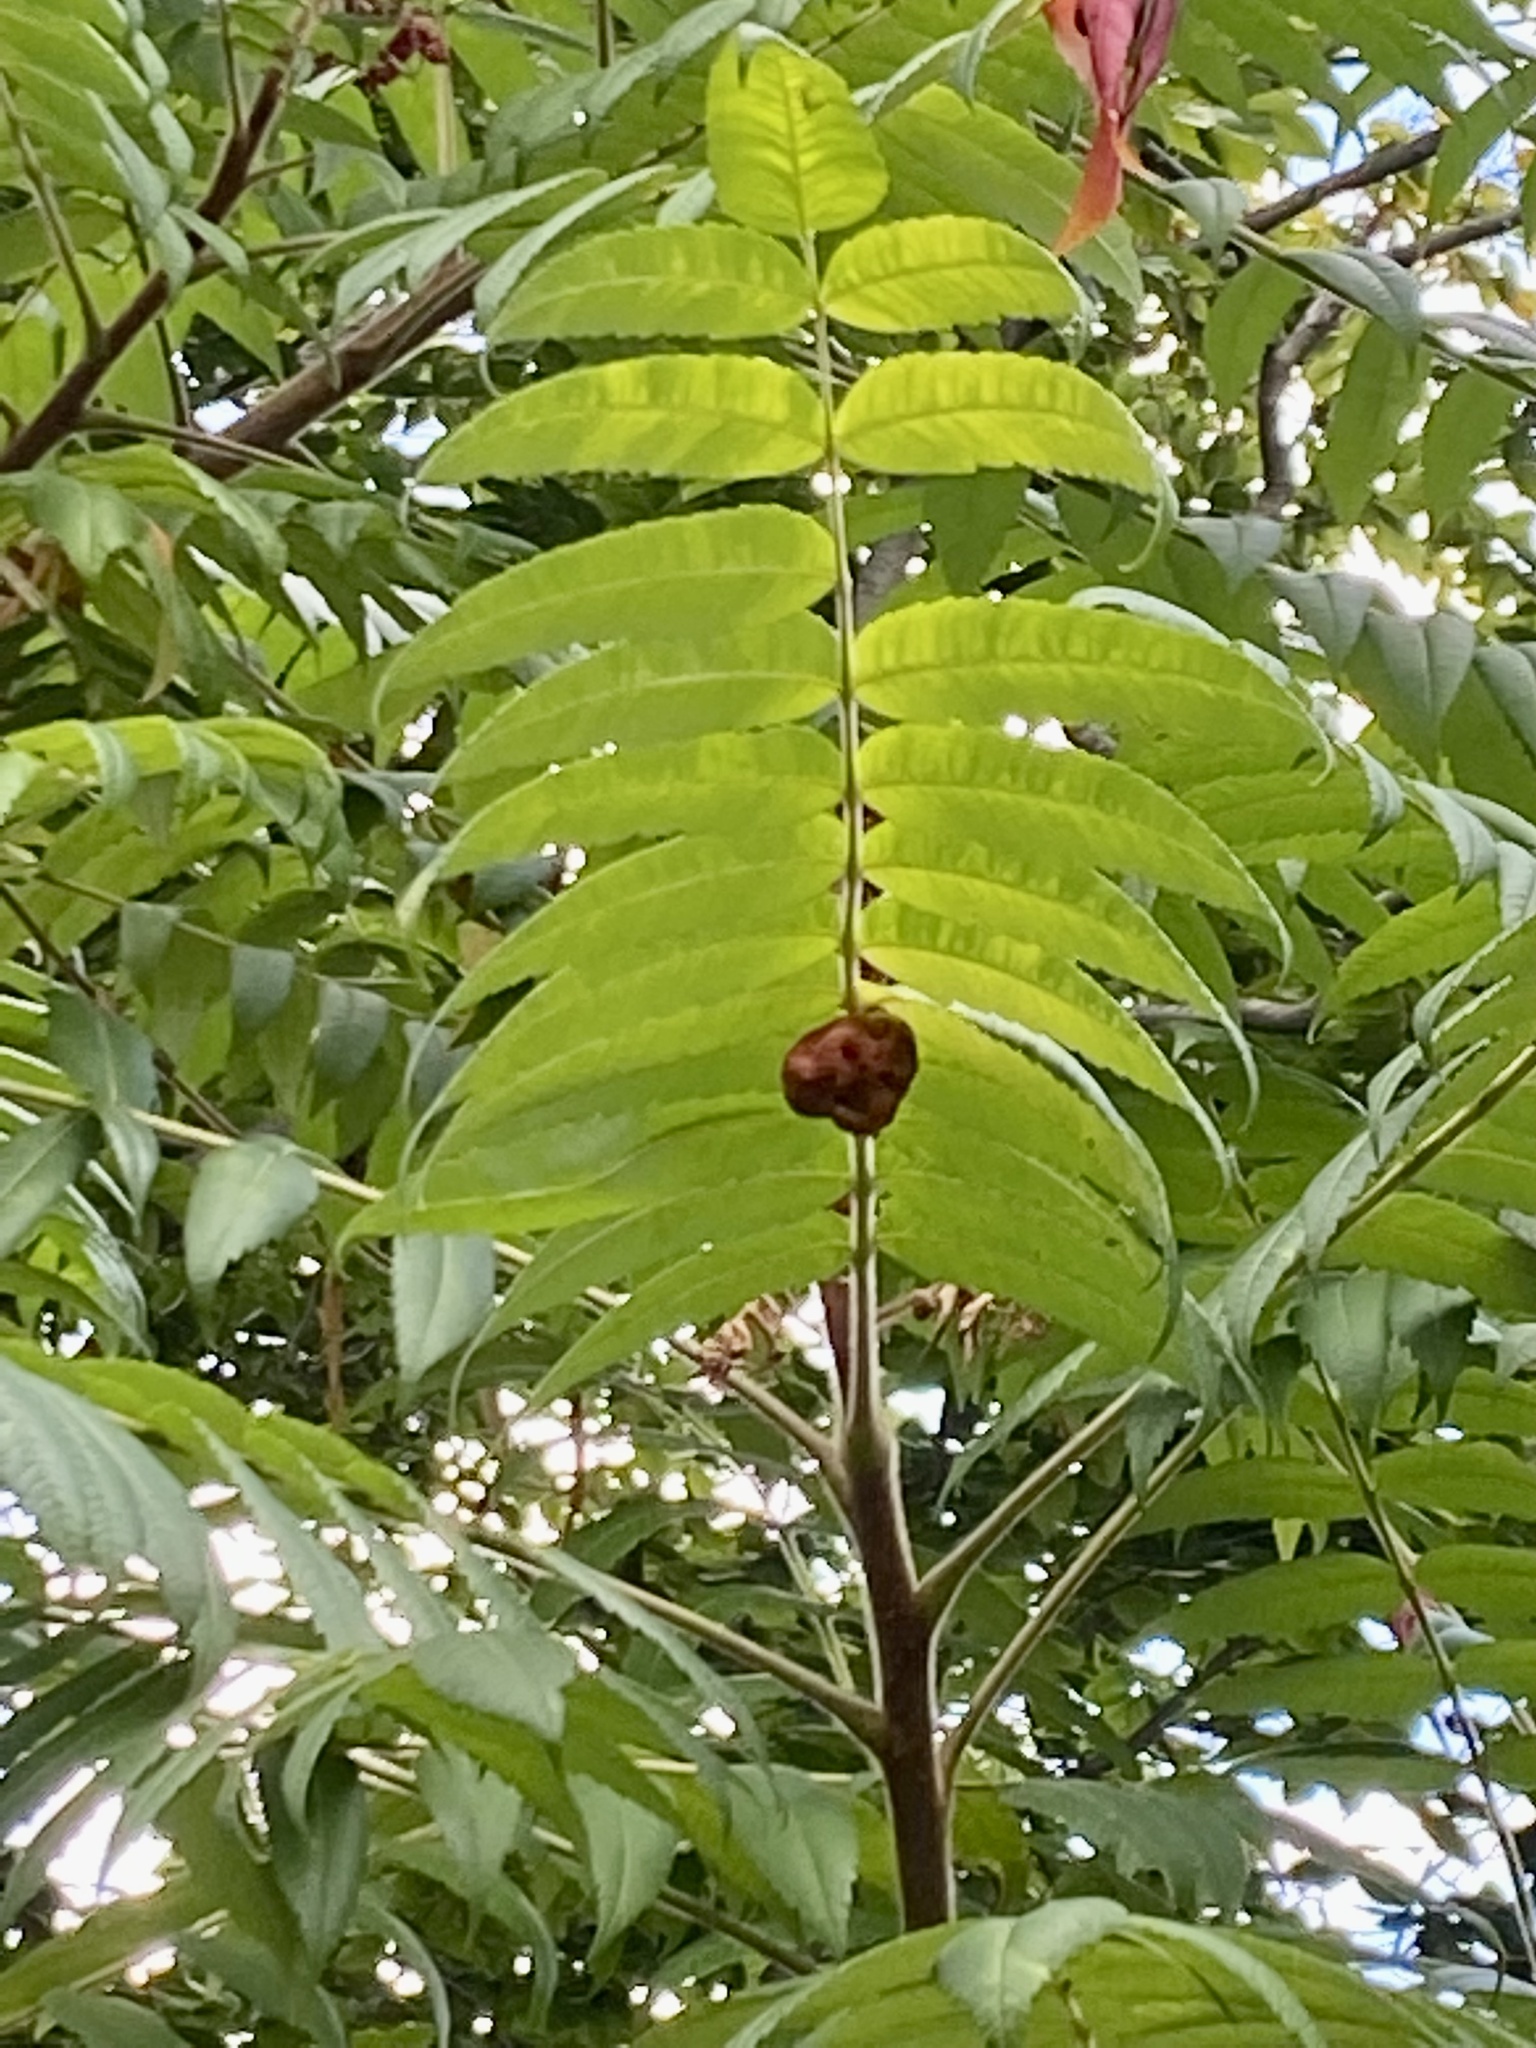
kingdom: Animalia
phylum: Arthropoda
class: Insecta
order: Hemiptera
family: Aphididae
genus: Melaphis
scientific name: Melaphis rhois
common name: Sumac gall aphid
